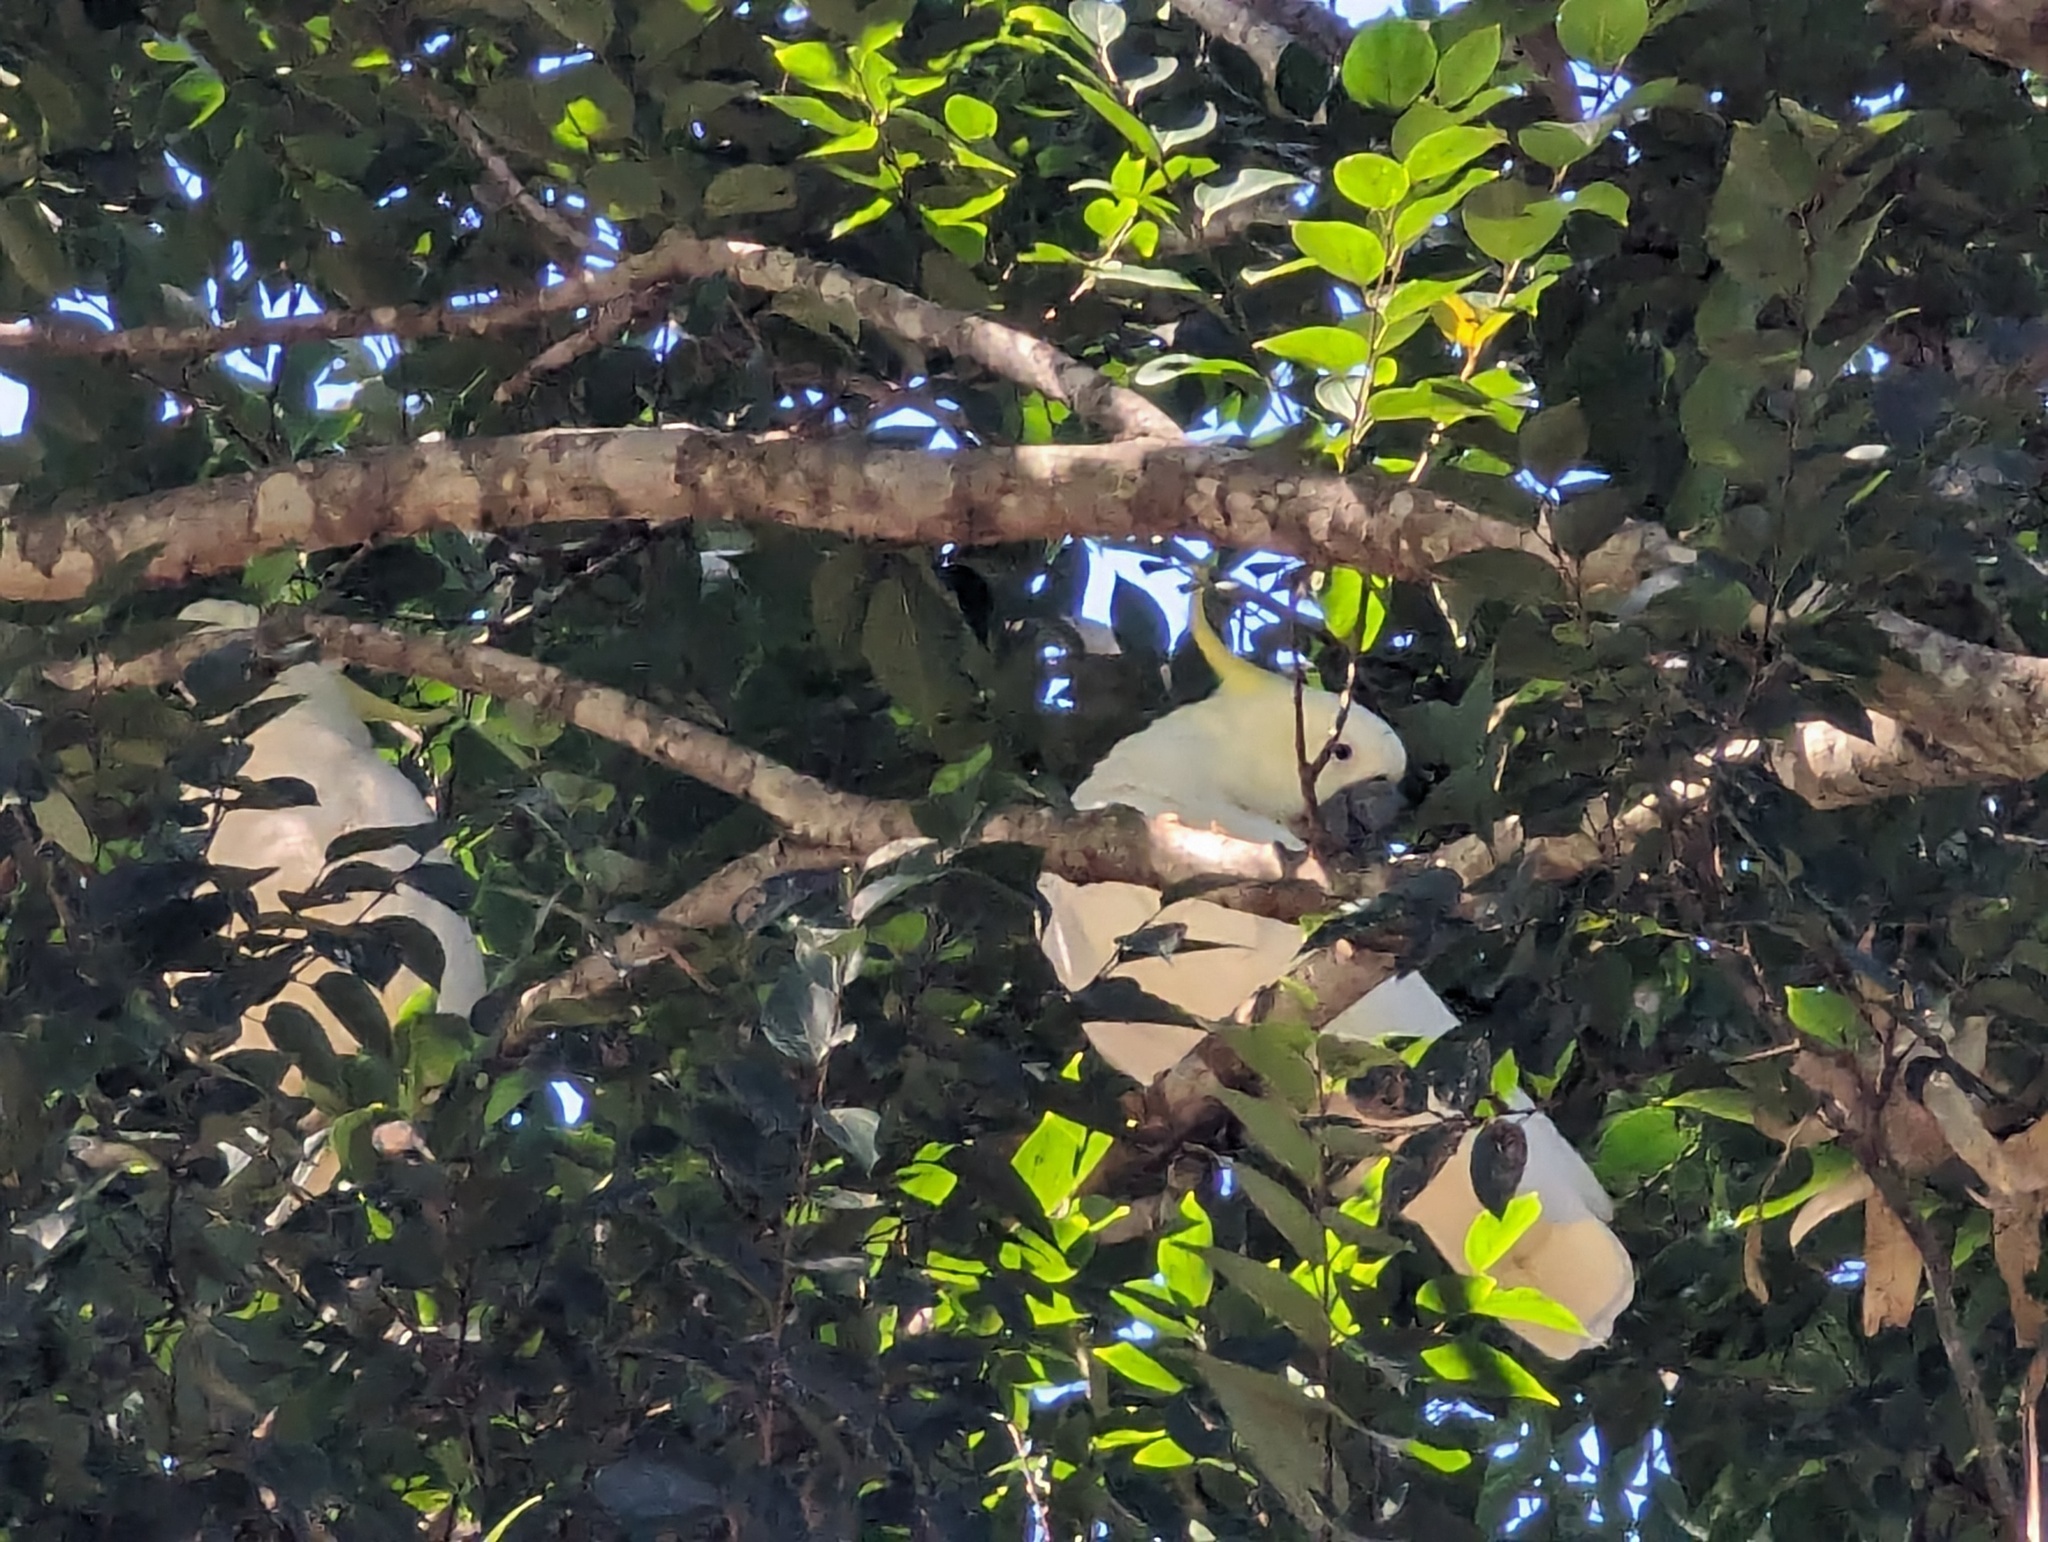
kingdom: Animalia
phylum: Chordata
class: Aves
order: Psittaciformes
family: Psittacidae
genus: Cacatua
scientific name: Cacatua galerita
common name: Sulphur-crested cockatoo
